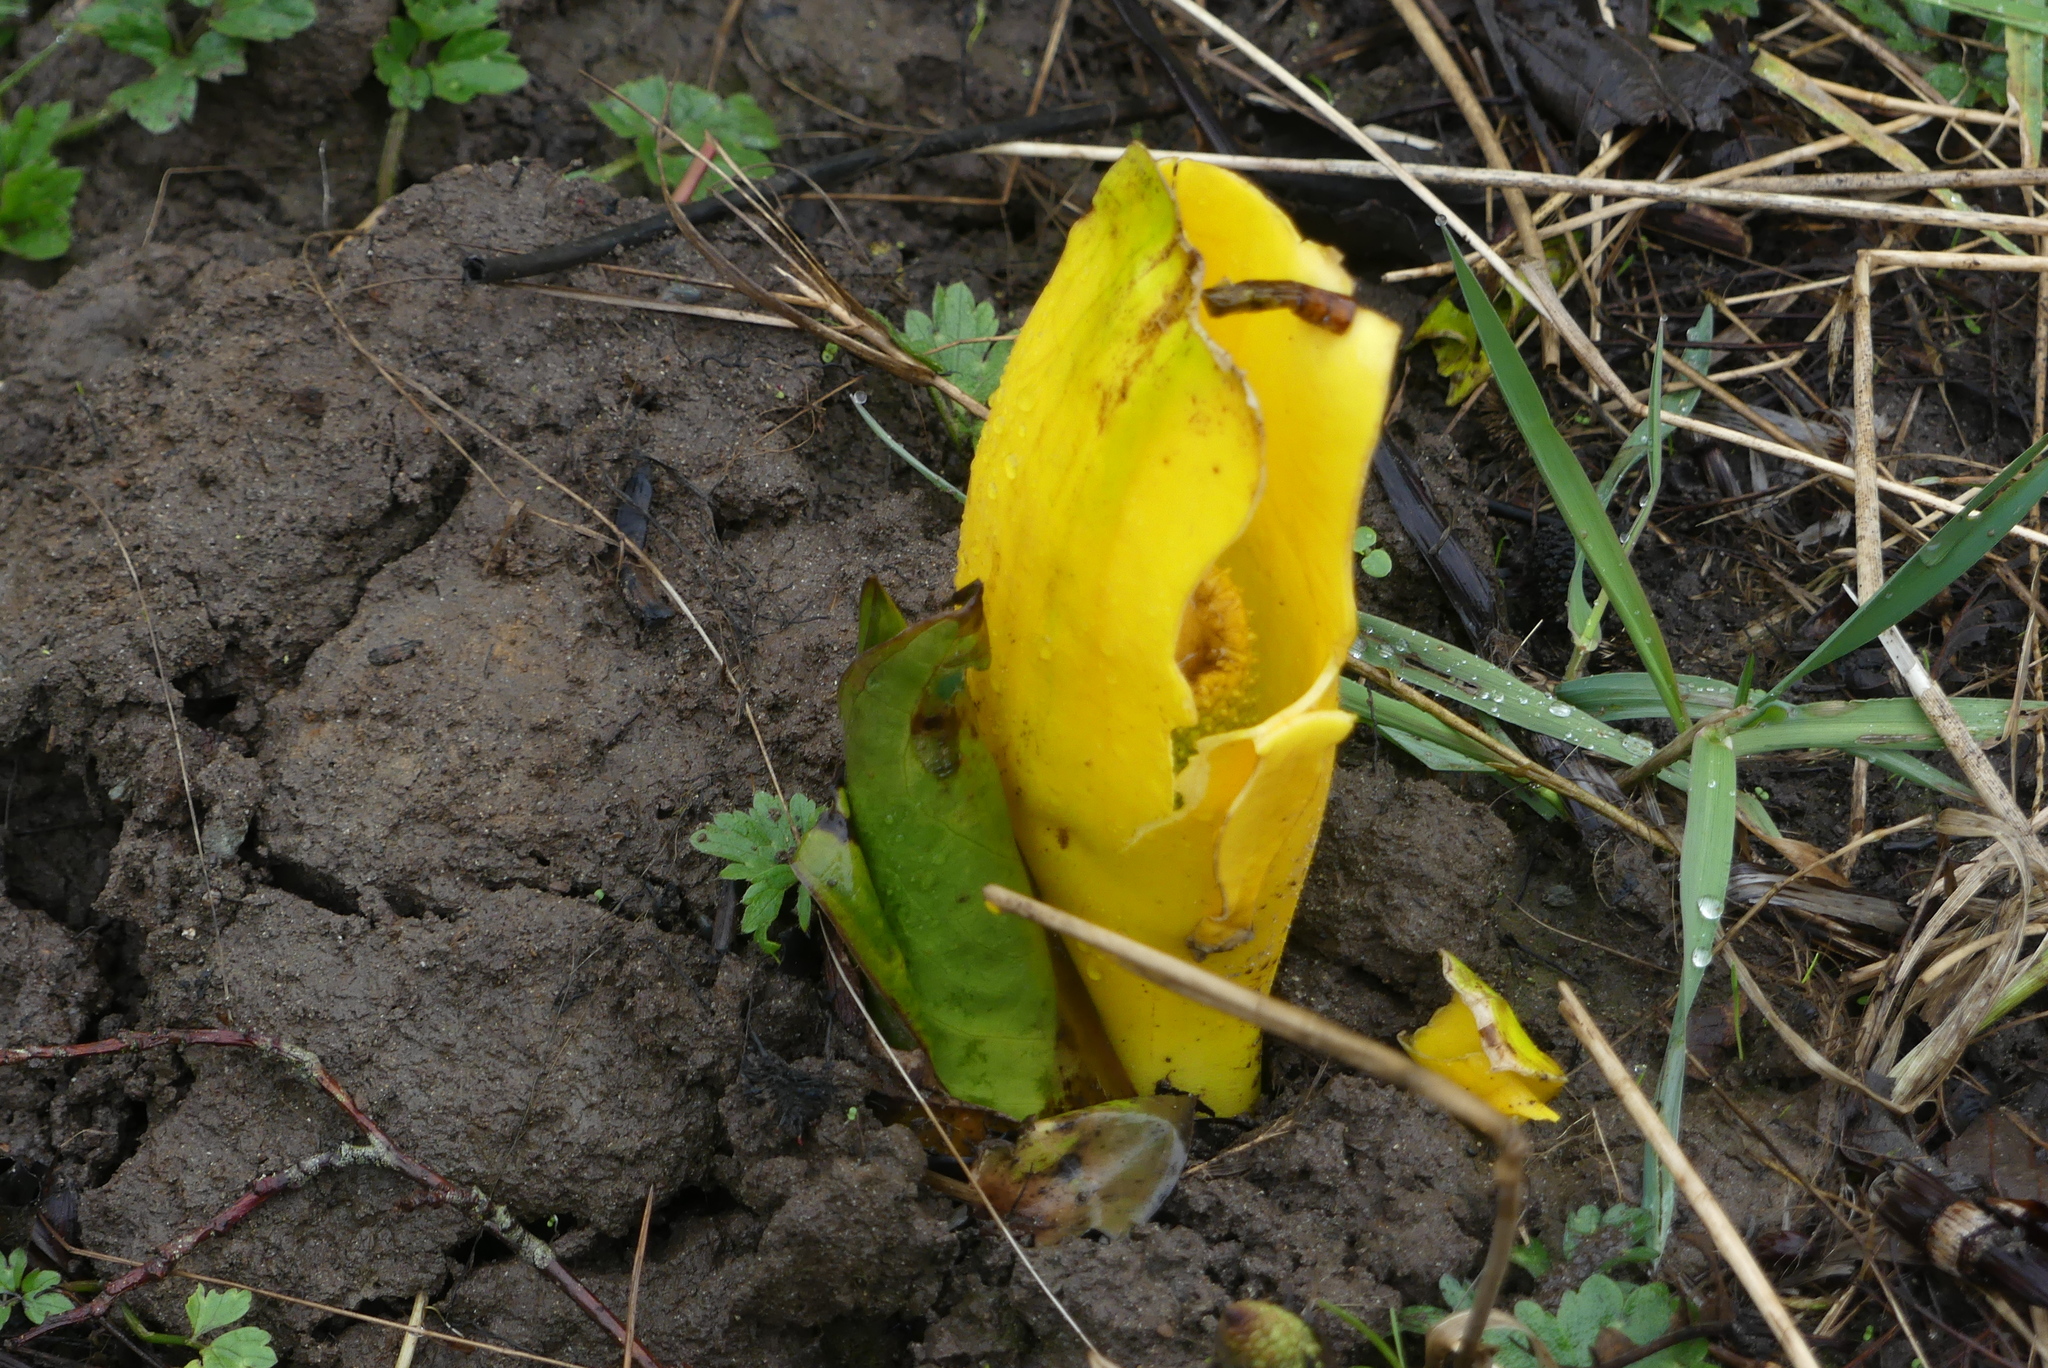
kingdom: Plantae
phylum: Tracheophyta
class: Liliopsida
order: Alismatales
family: Araceae
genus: Lysichiton
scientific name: Lysichiton americanus
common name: American skunk cabbage
